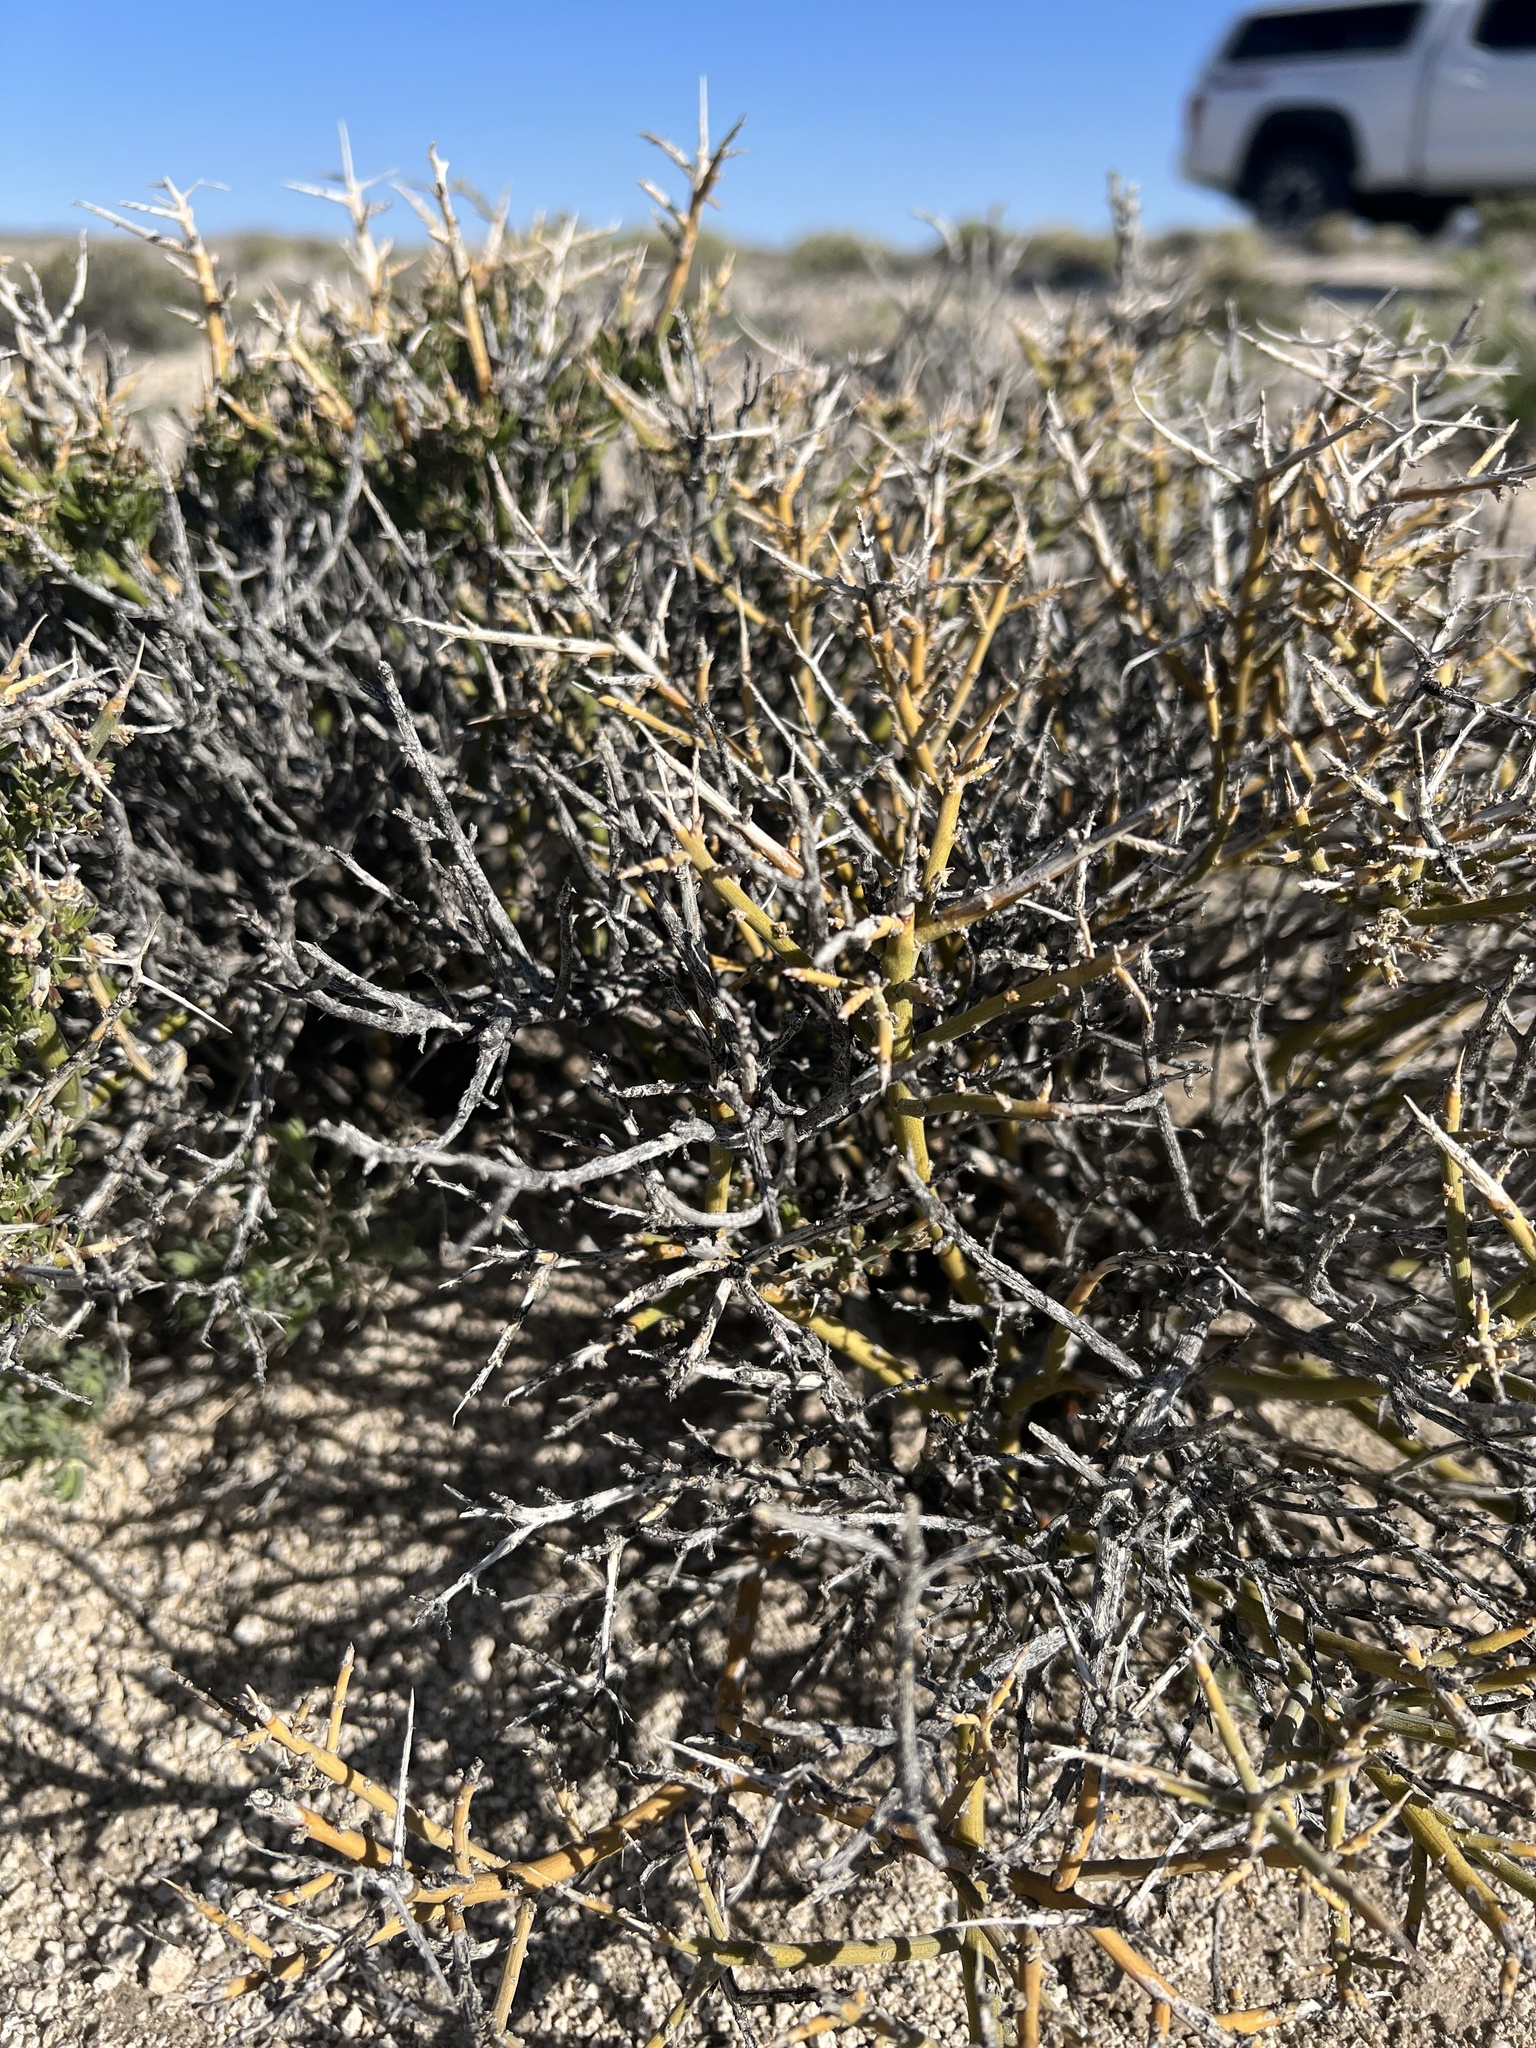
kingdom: Plantae
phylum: Tracheophyta
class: Magnoliopsida
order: Lamiales
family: Oleaceae
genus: Menodora
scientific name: Menodora spinescens
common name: Spiny menodora
